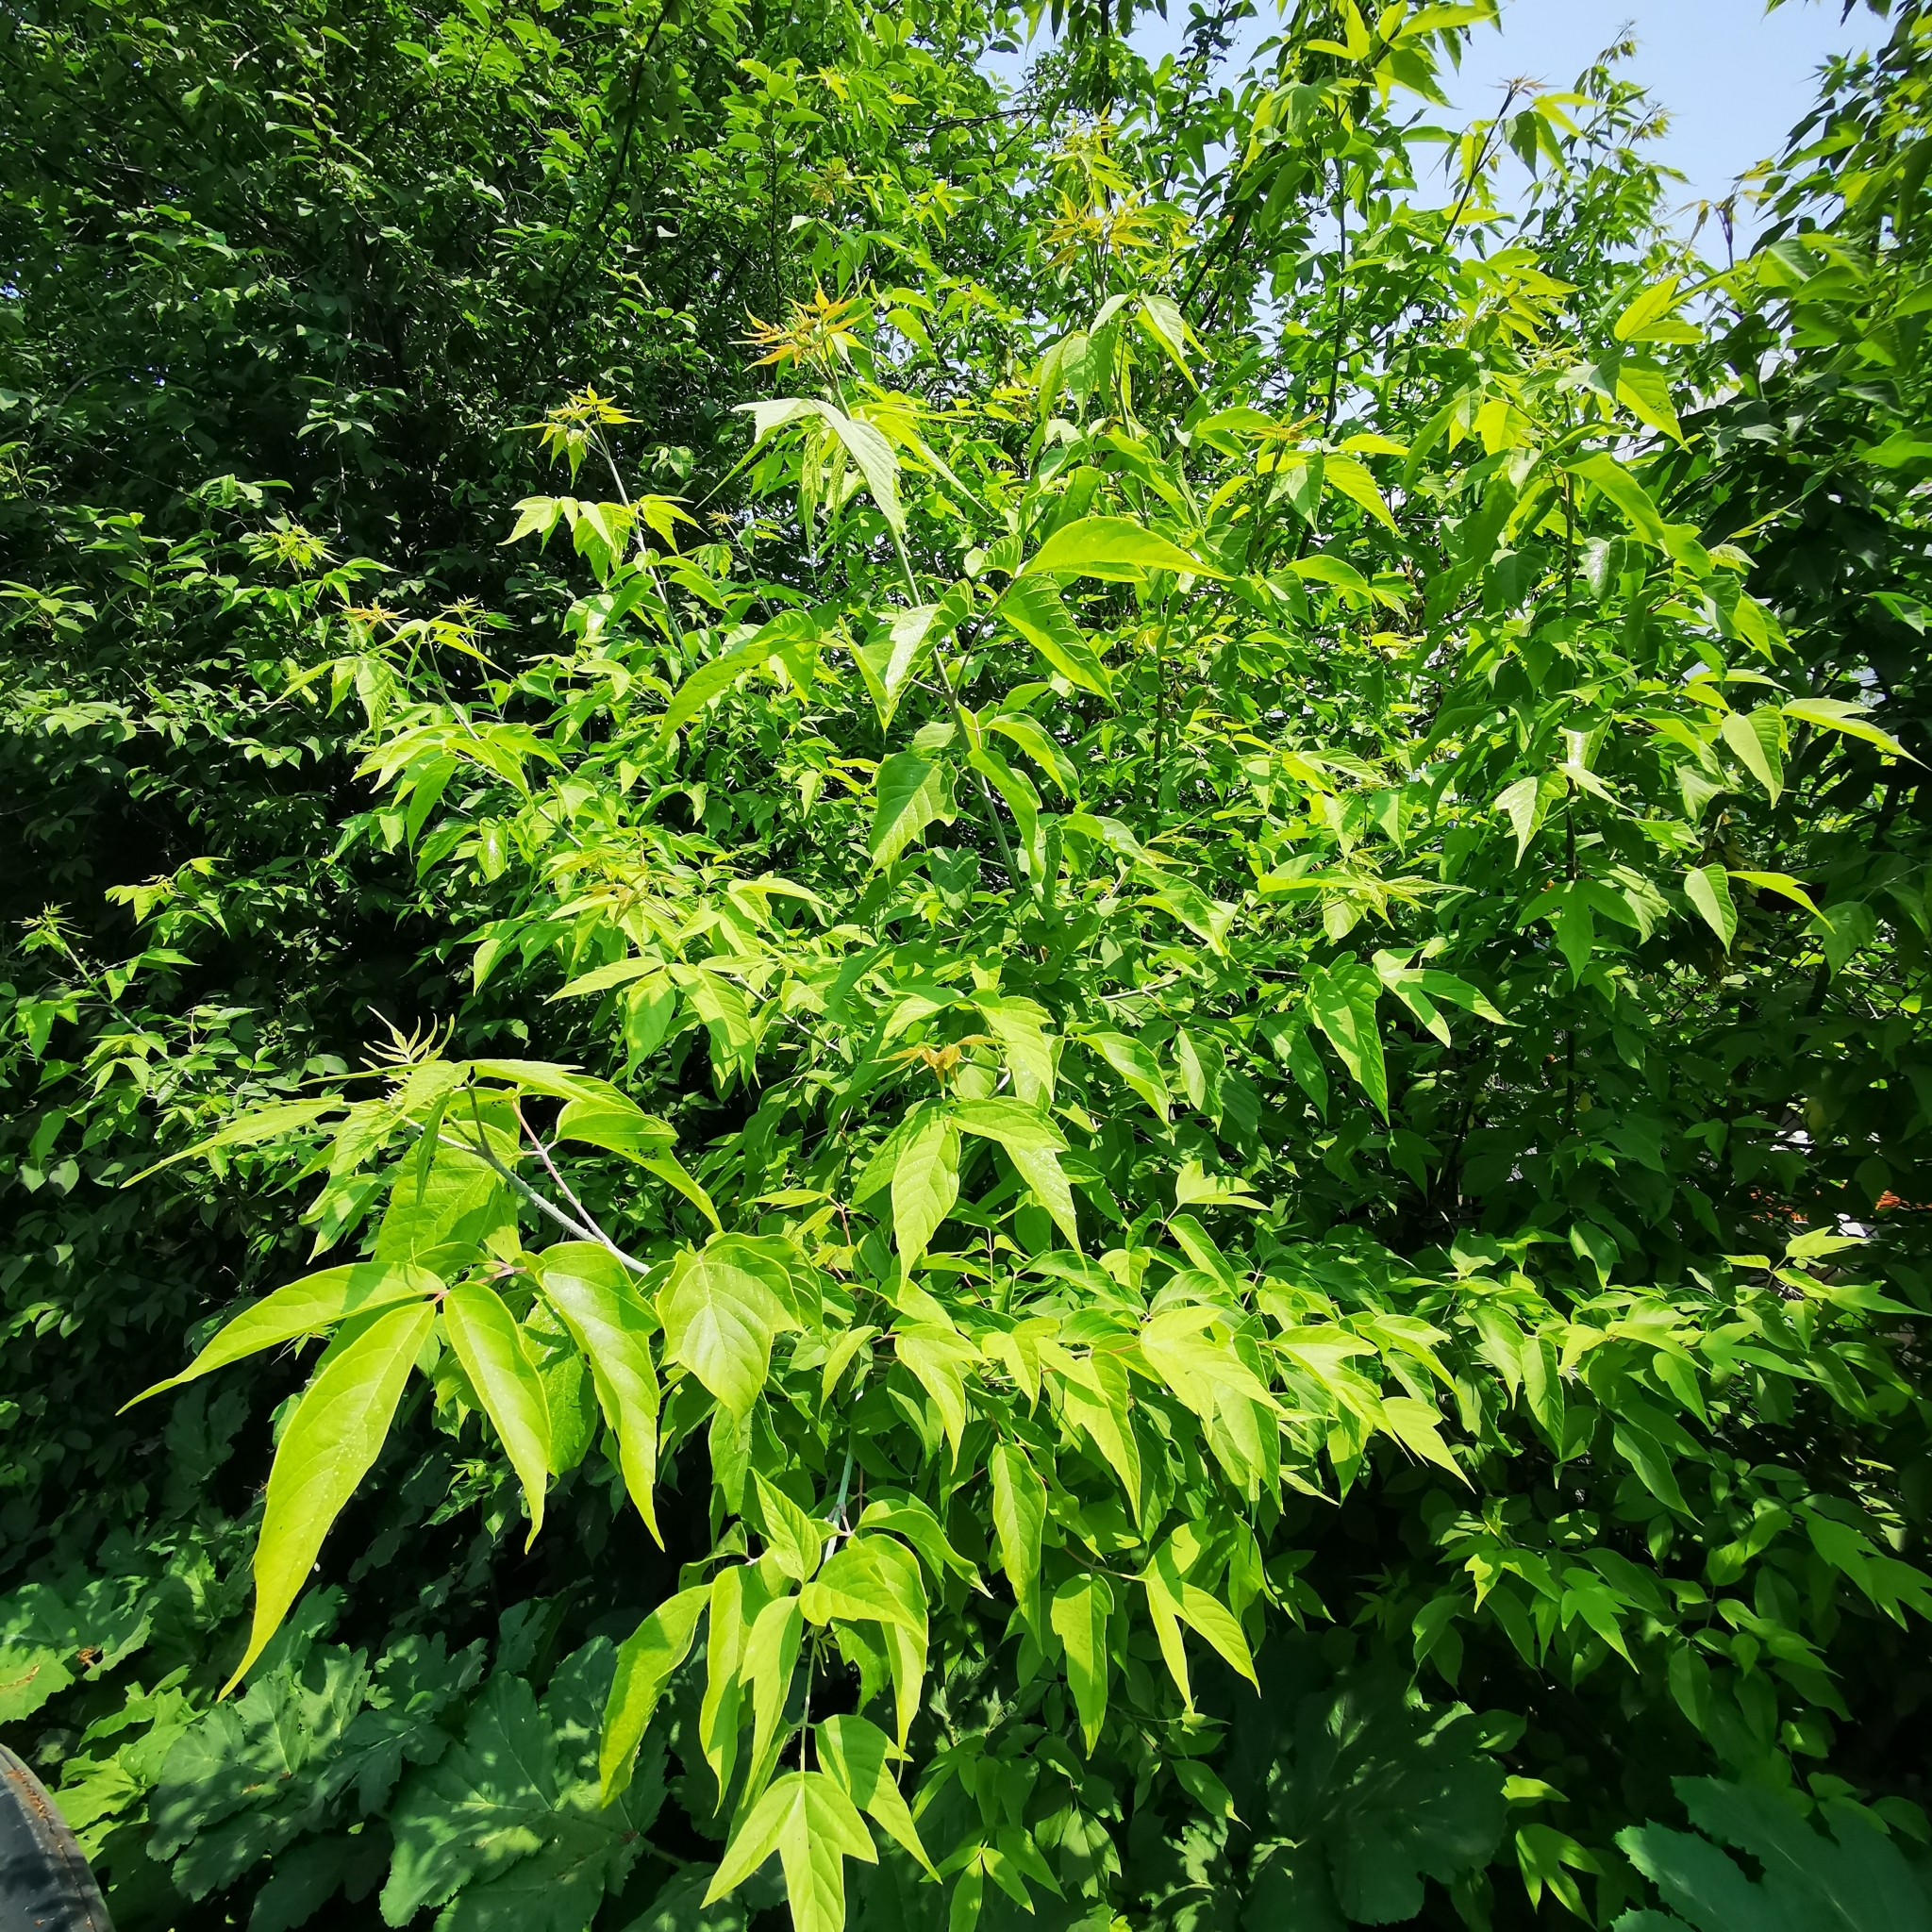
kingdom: Plantae
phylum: Tracheophyta
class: Magnoliopsida
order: Sapindales
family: Sapindaceae
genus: Acer
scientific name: Acer negundo
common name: Ashleaf maple
